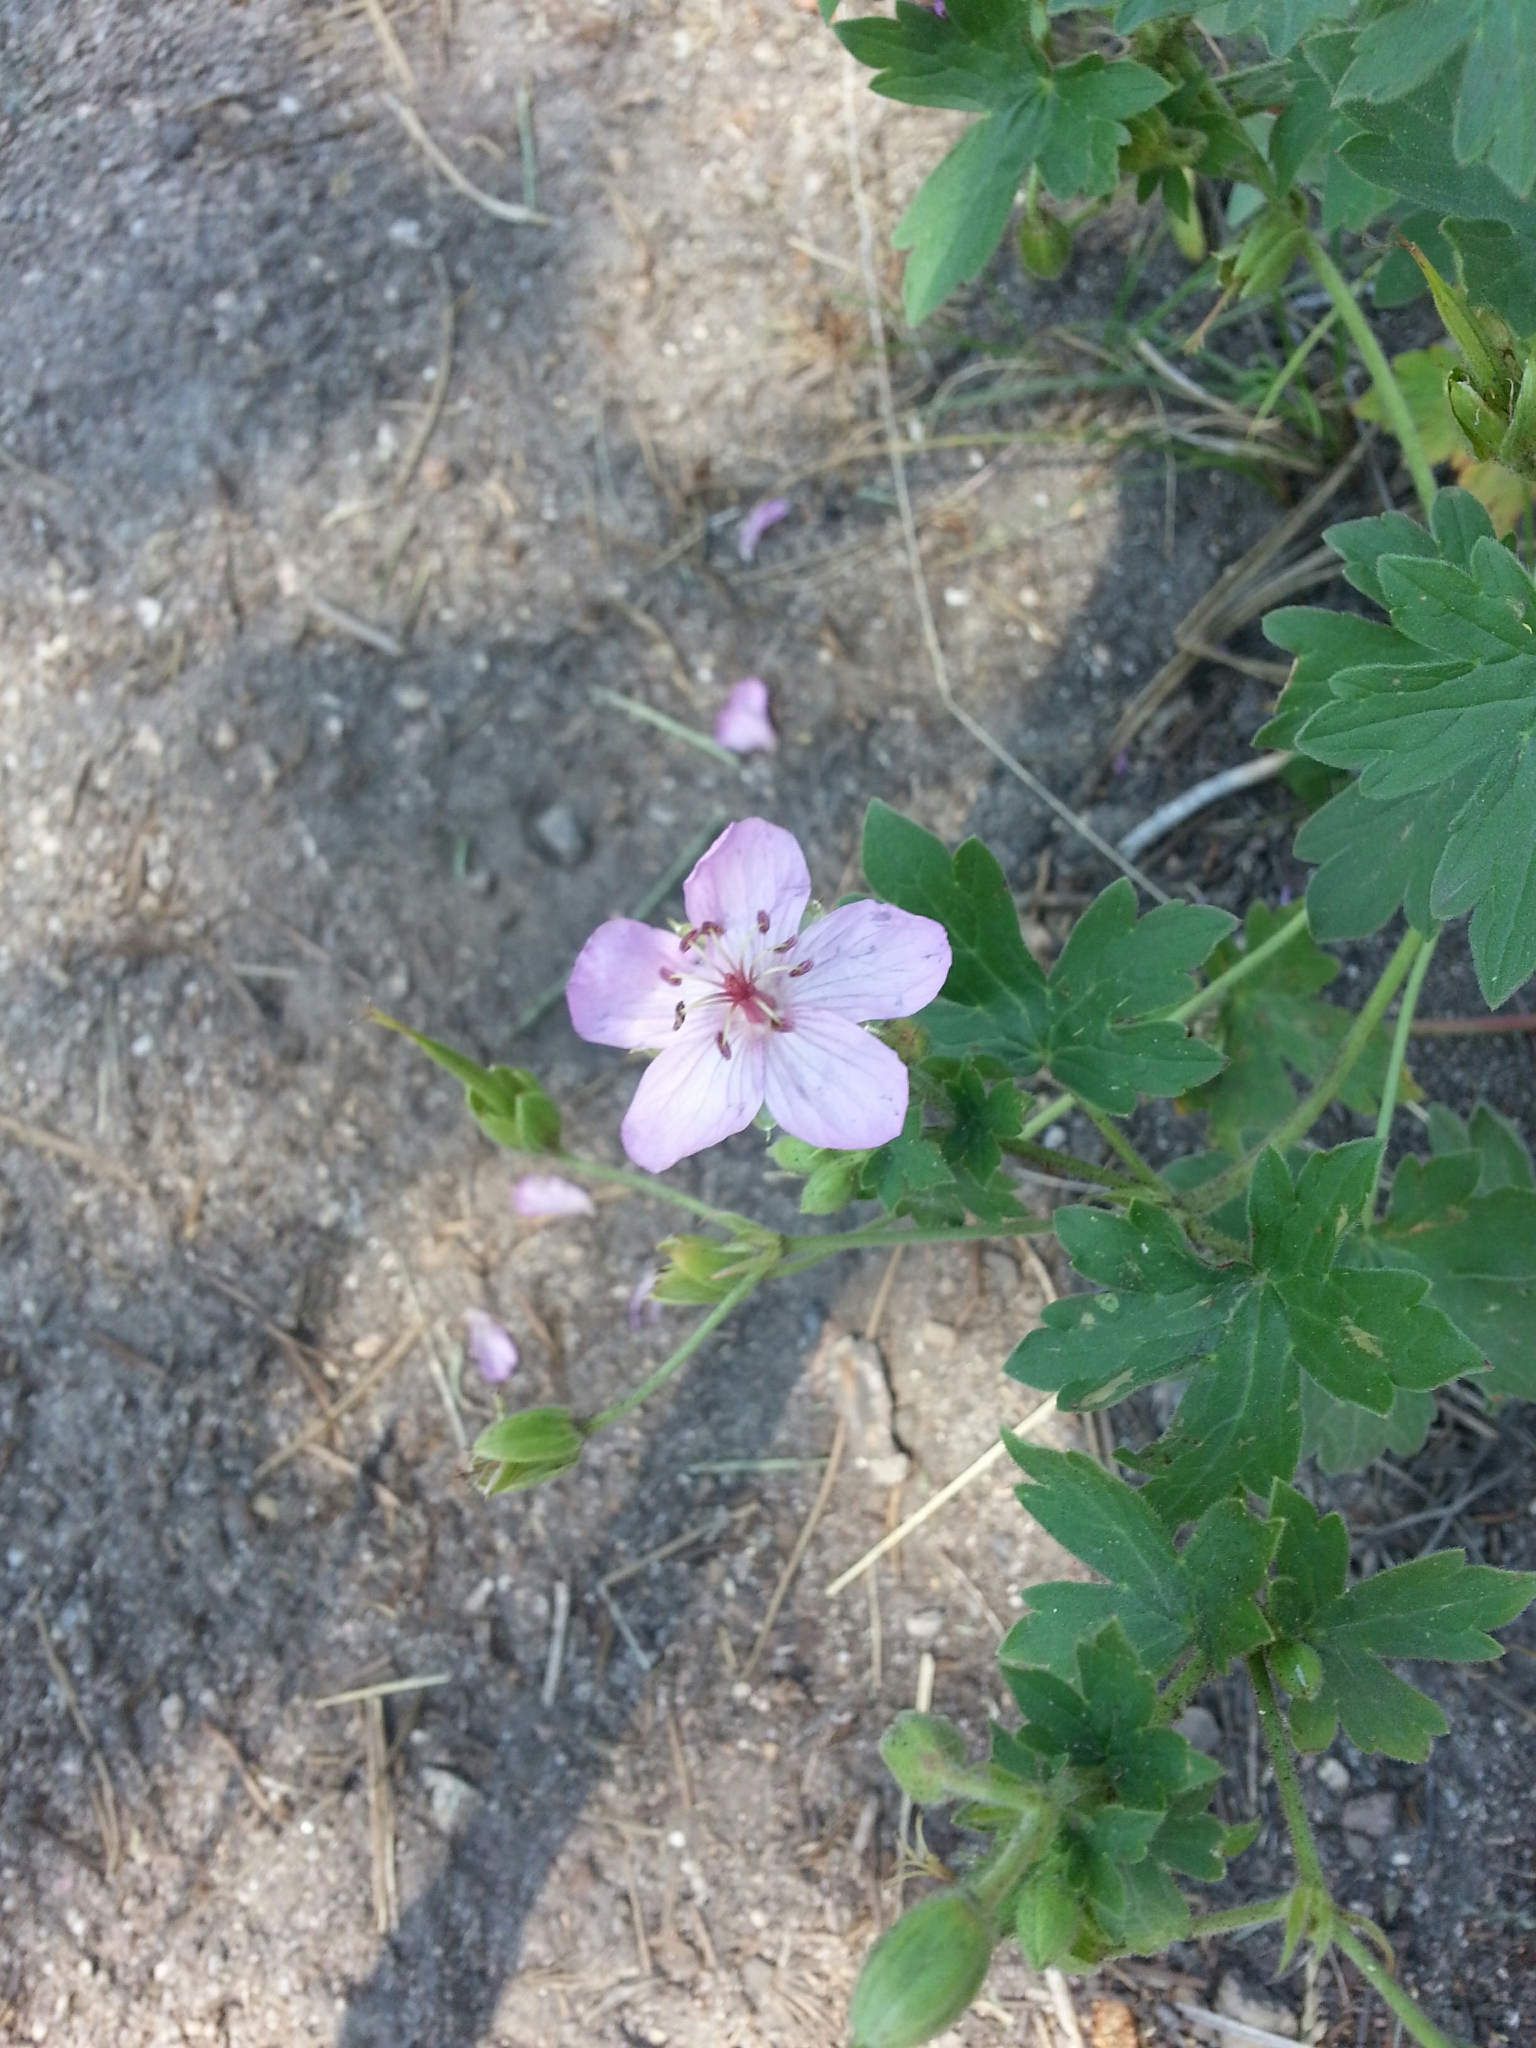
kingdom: Plantae
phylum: Tracheophyta
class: Magnoliopsida
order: Geraniales
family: Geraniaceae
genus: Geranium
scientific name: Geranium caespitosum
